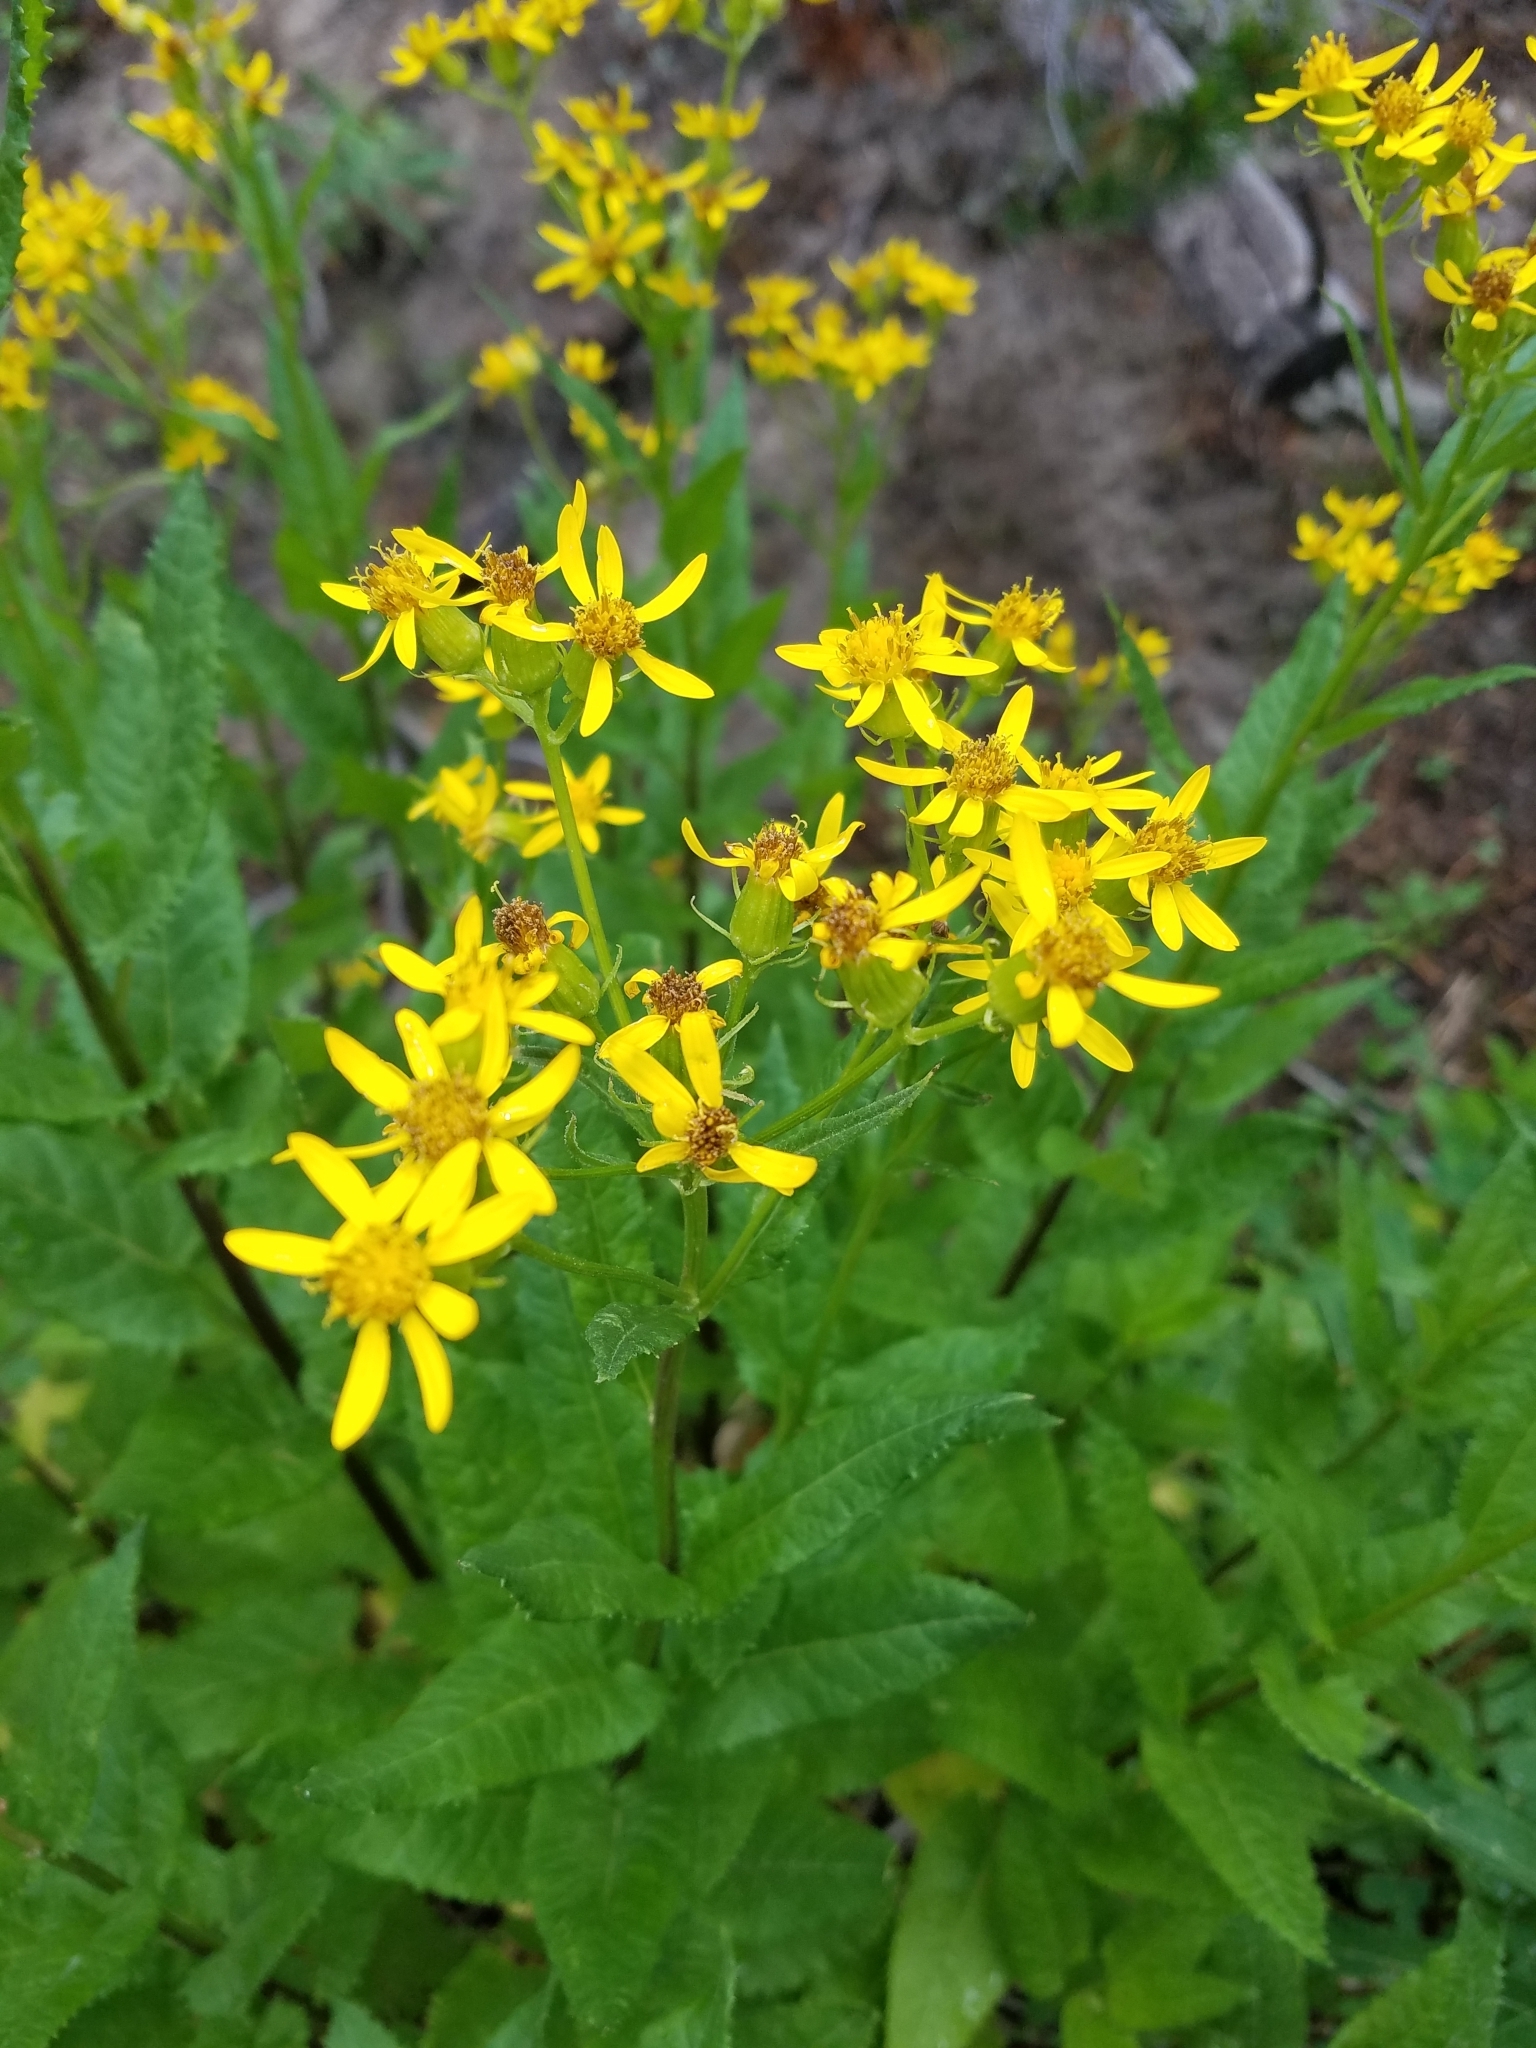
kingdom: Plantae
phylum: Tracheophyta
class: Magnoliopsida
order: Asterales
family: Asteraceae
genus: Senecio
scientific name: Senecio triangularis
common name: Arrowleaf butterweed
